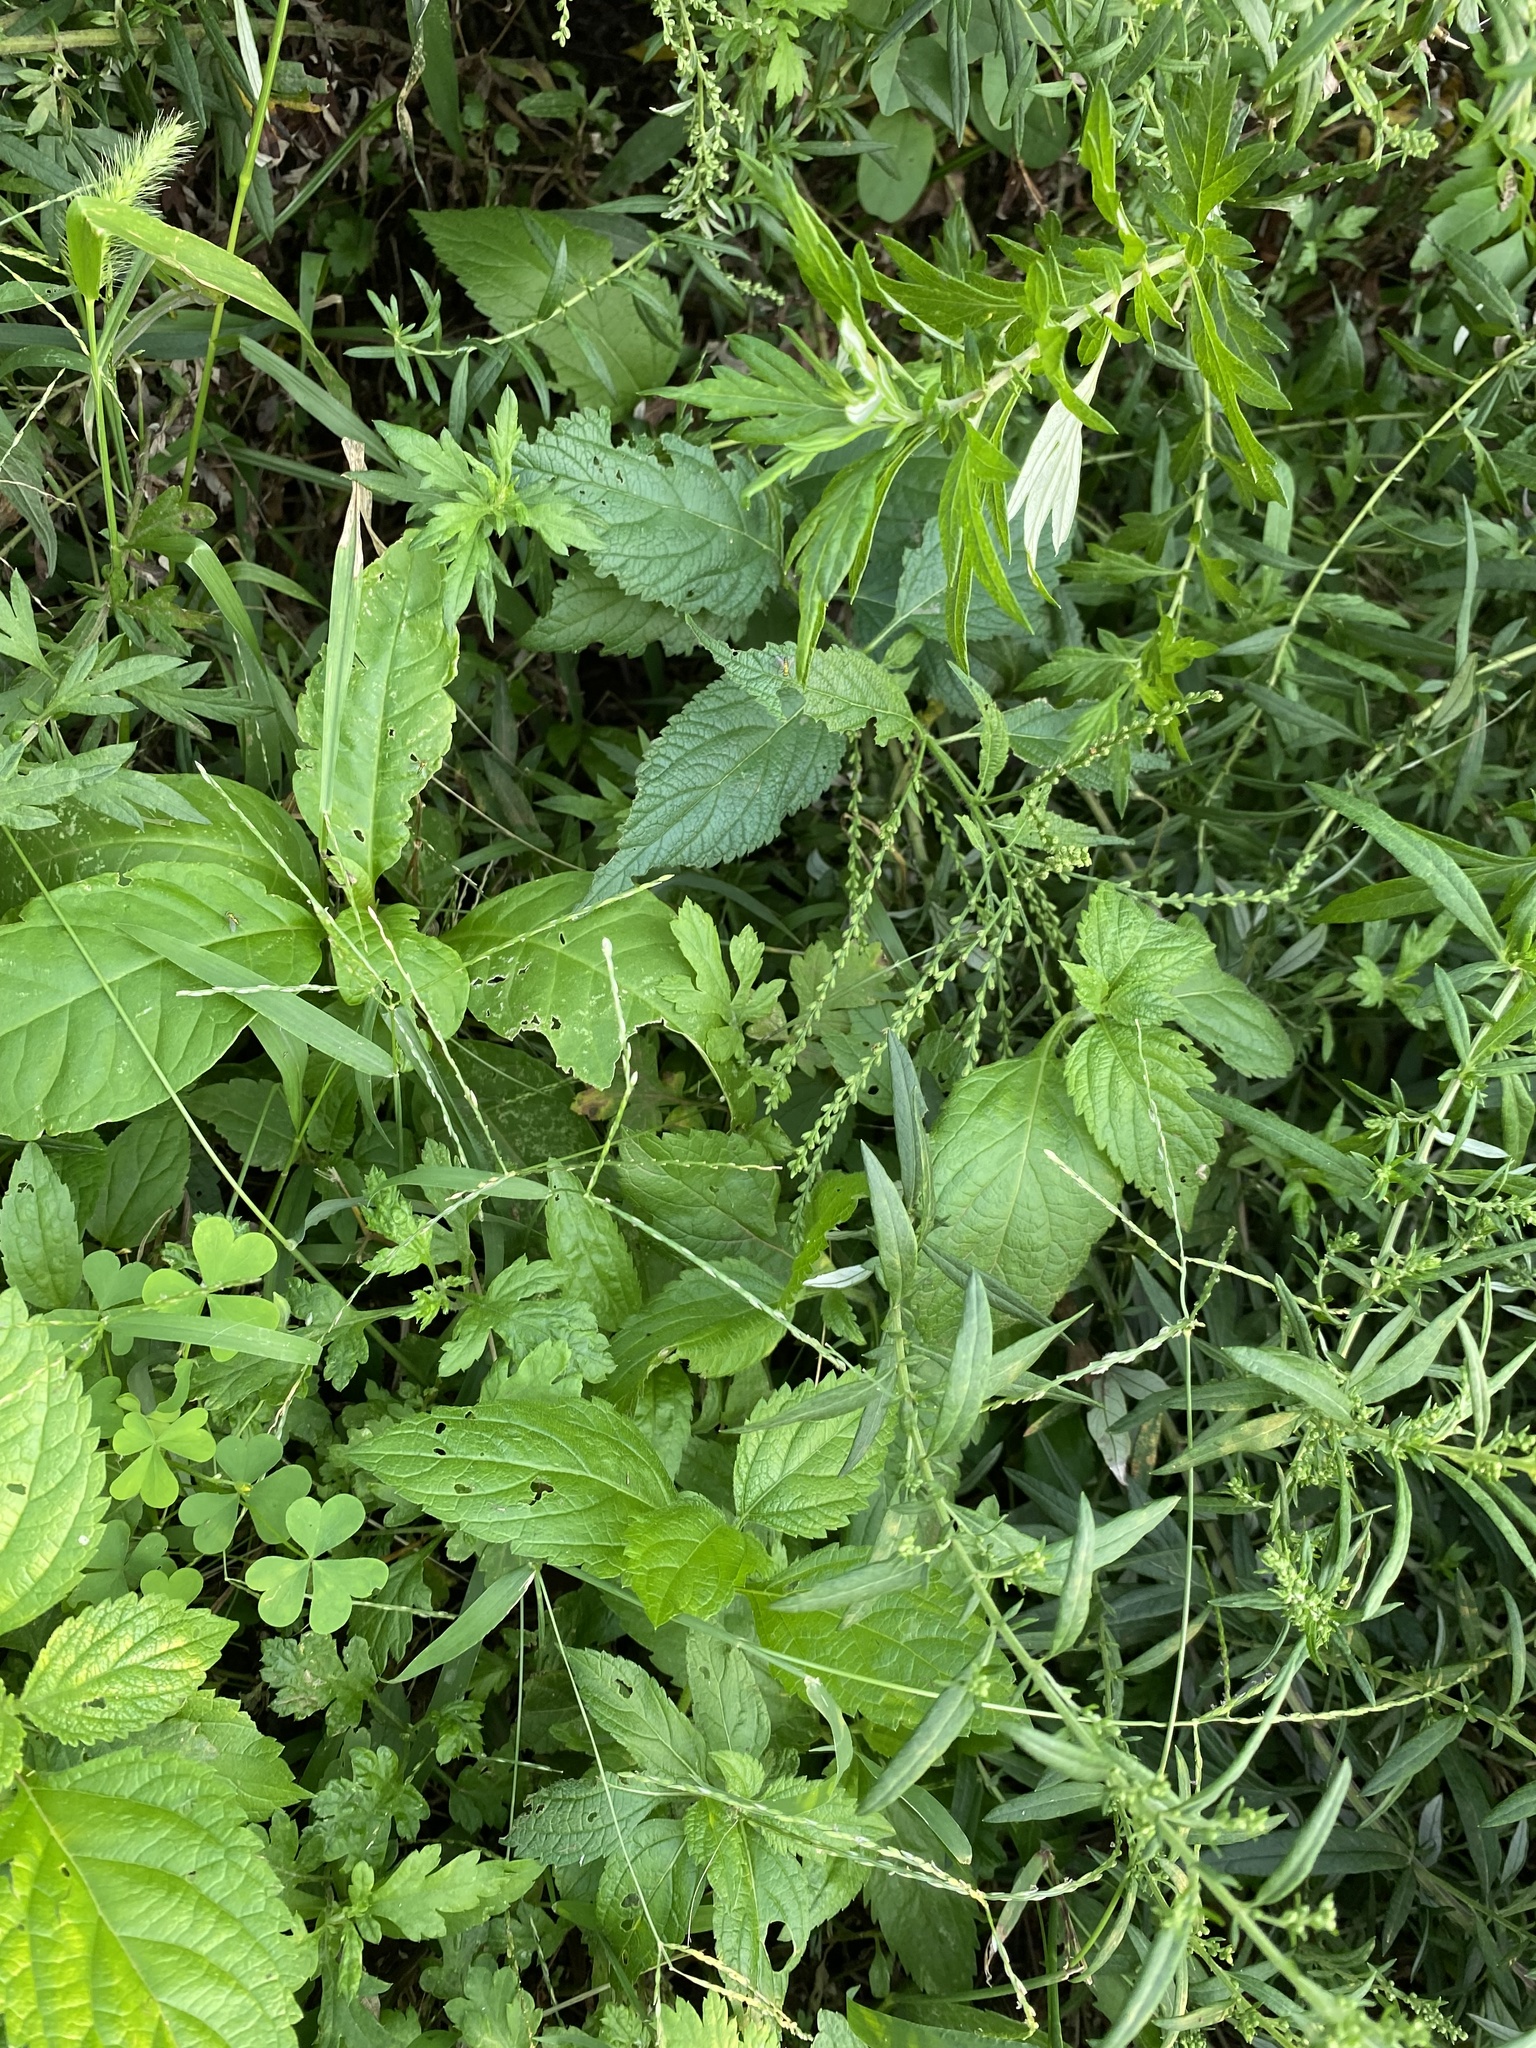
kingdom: Plantae
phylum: Tracheophyta
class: Magnoliopsida
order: Lamiales
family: Verbenaceae
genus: Verbena
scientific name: Verbena urticifolia
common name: Nettle-leaved vervain
